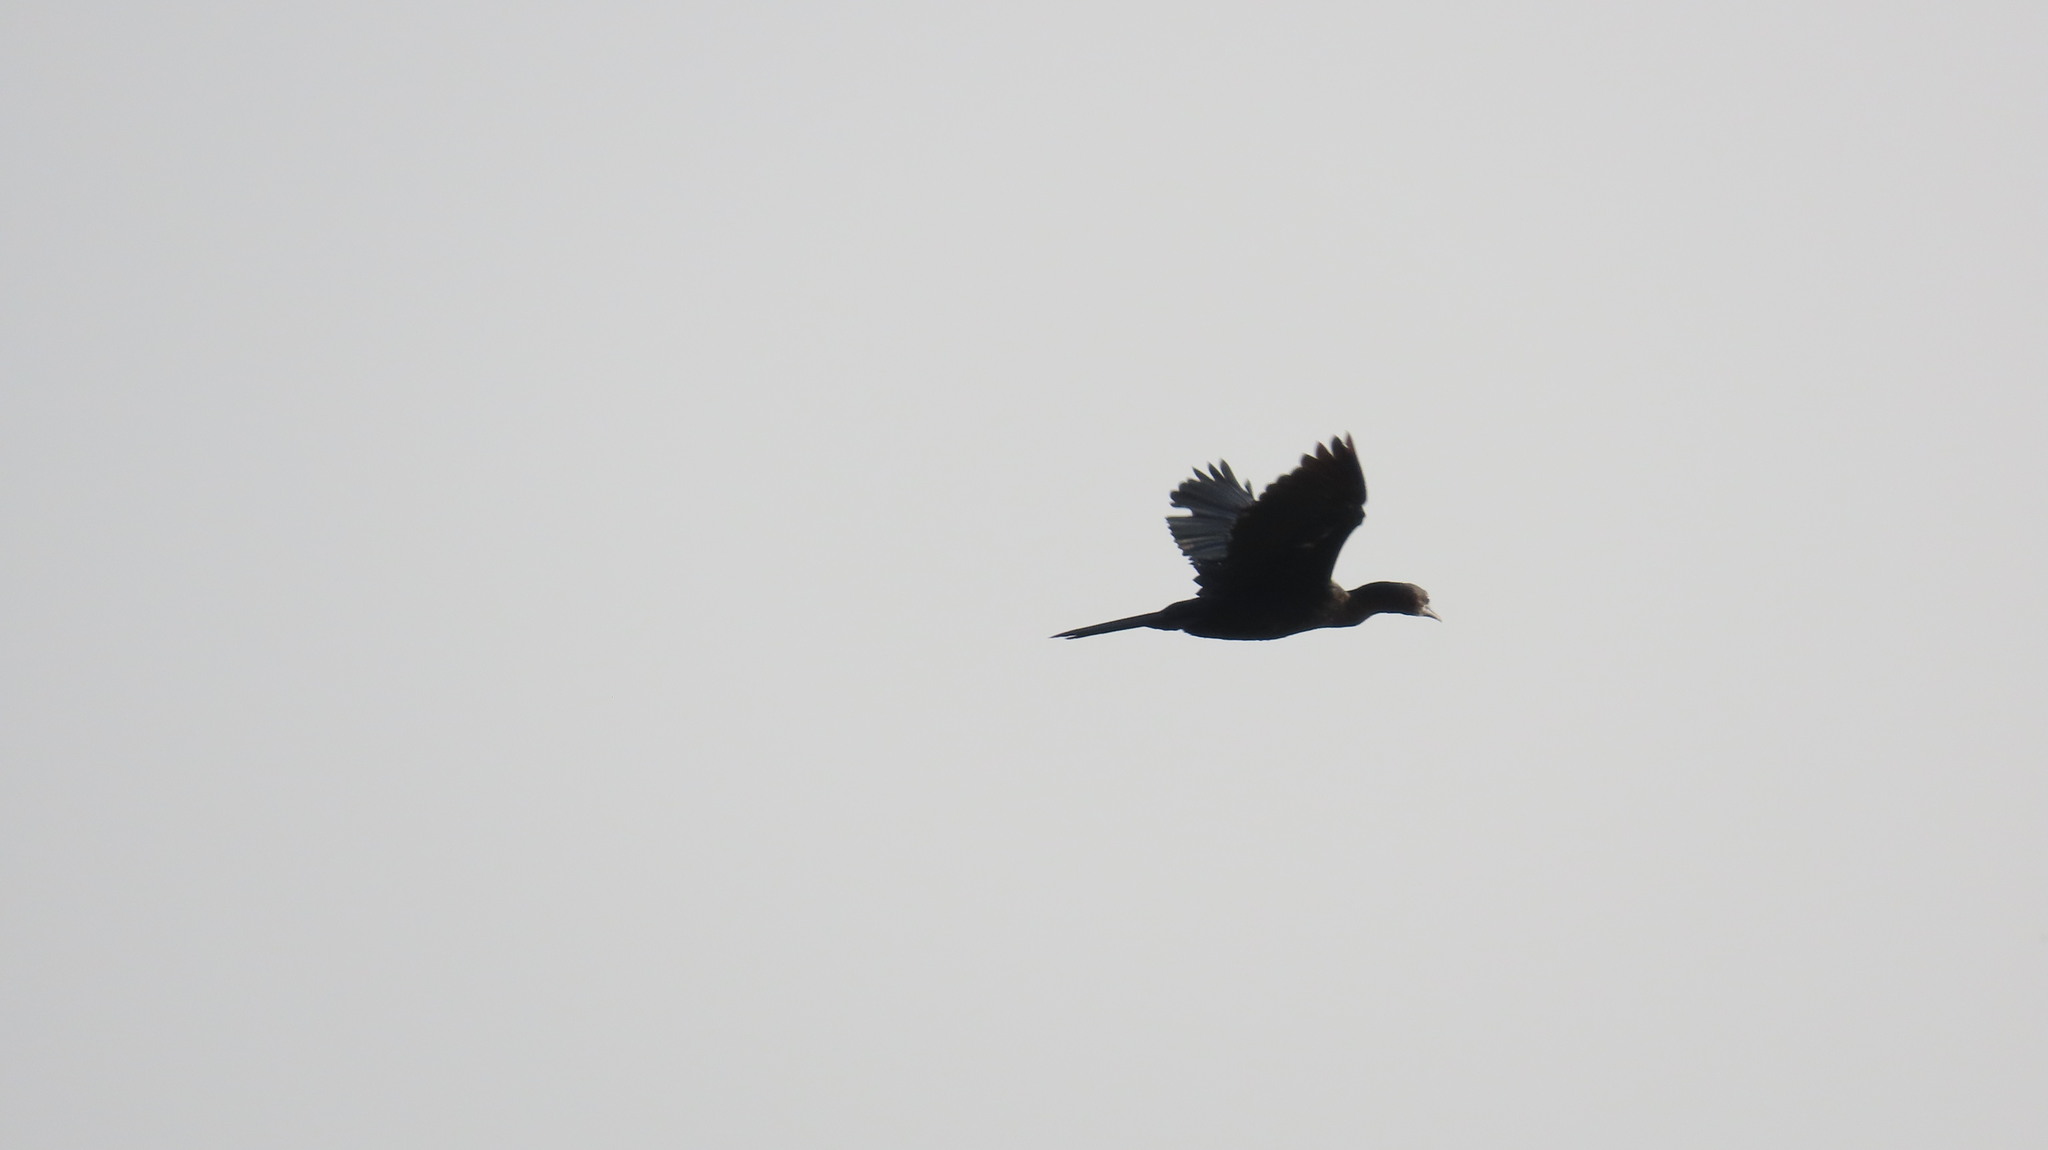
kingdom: Animalia
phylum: Chordata
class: Aves
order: Suliformes
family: Phalacrocoracidae
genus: Microcarbo
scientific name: Microcarbo niger
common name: Little cormorant
